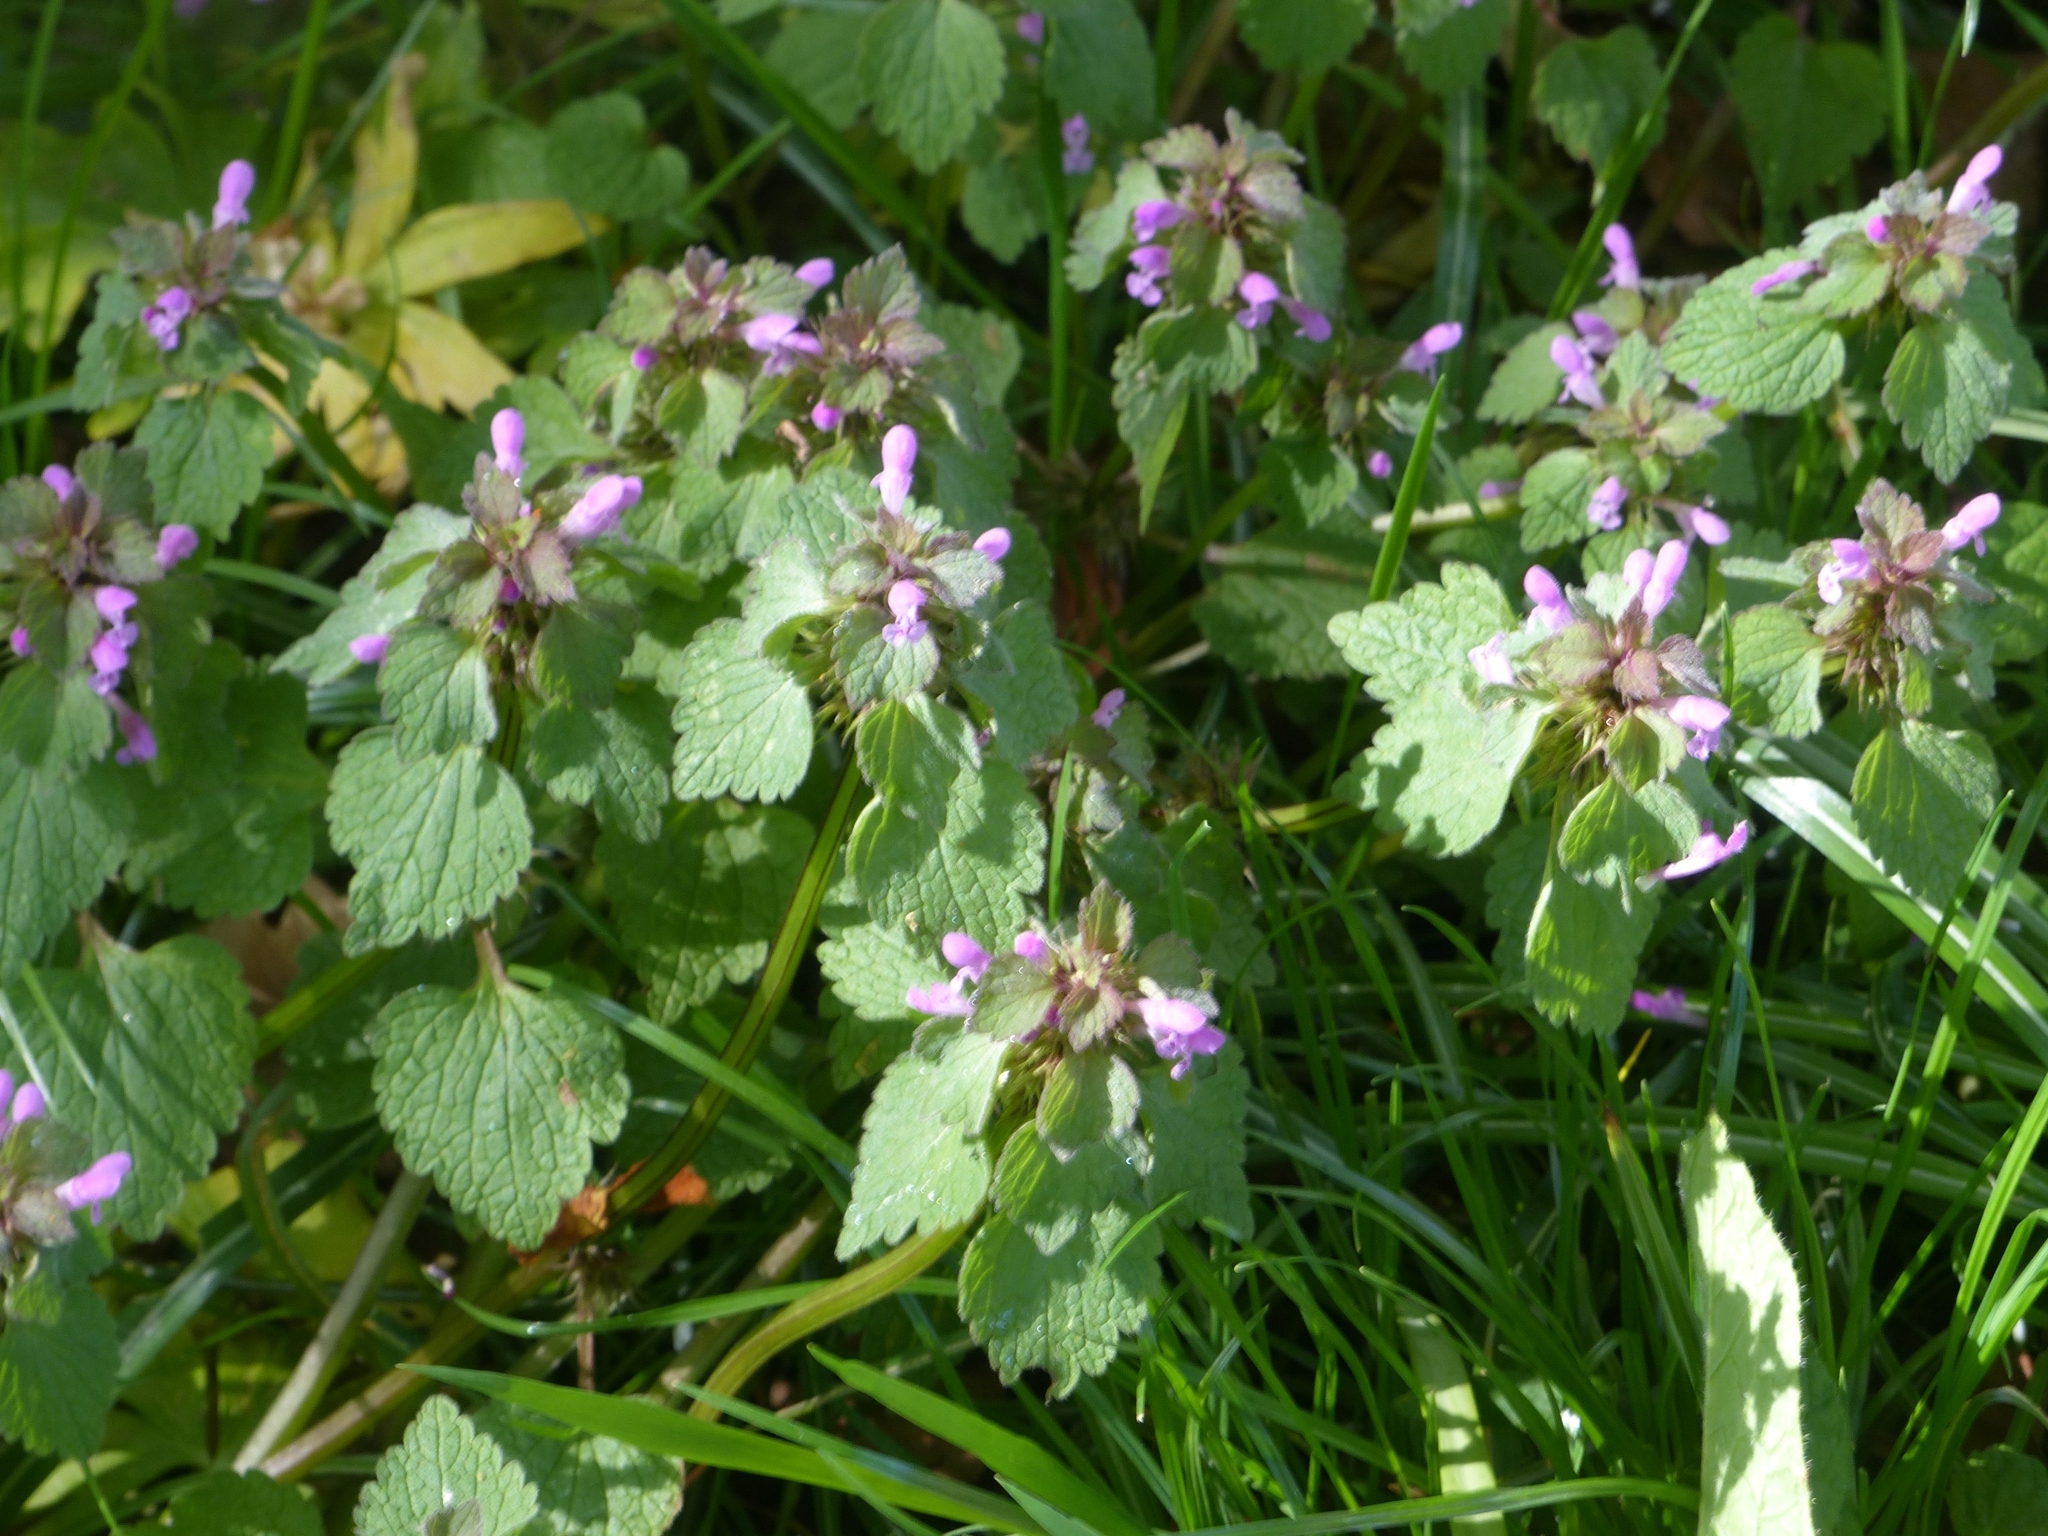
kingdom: Plantae
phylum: Tracheophyta
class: Magnoliopsida
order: Lamiales
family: Lamiaceae
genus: Lamium
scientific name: Lamium purpureum
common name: Red dead-nettle
